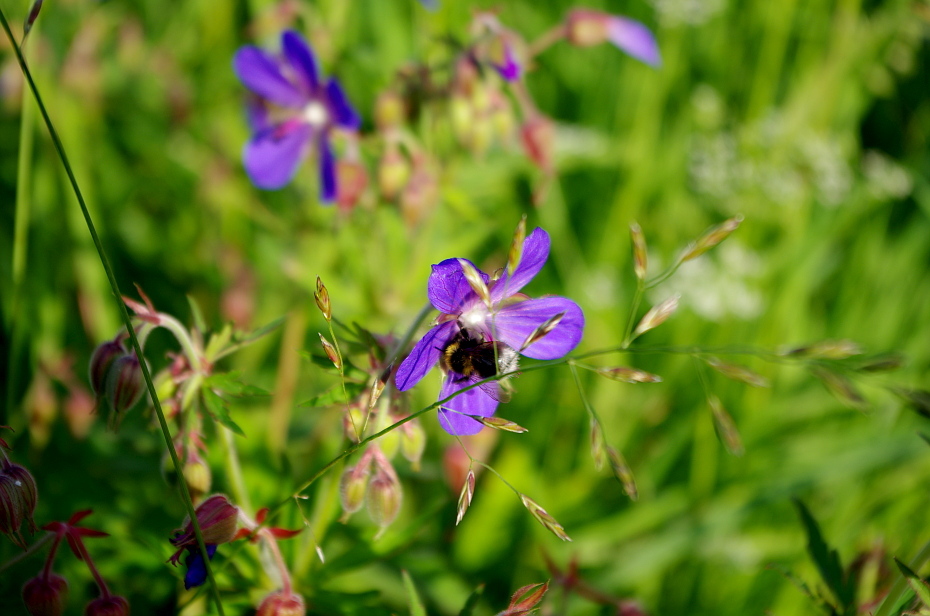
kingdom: Plantae
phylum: Tracheophyta
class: Magnoliopsida
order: Geraniales
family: Geraniaceae
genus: Geranium
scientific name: Geranium pratense
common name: Meadow crane's-bill
